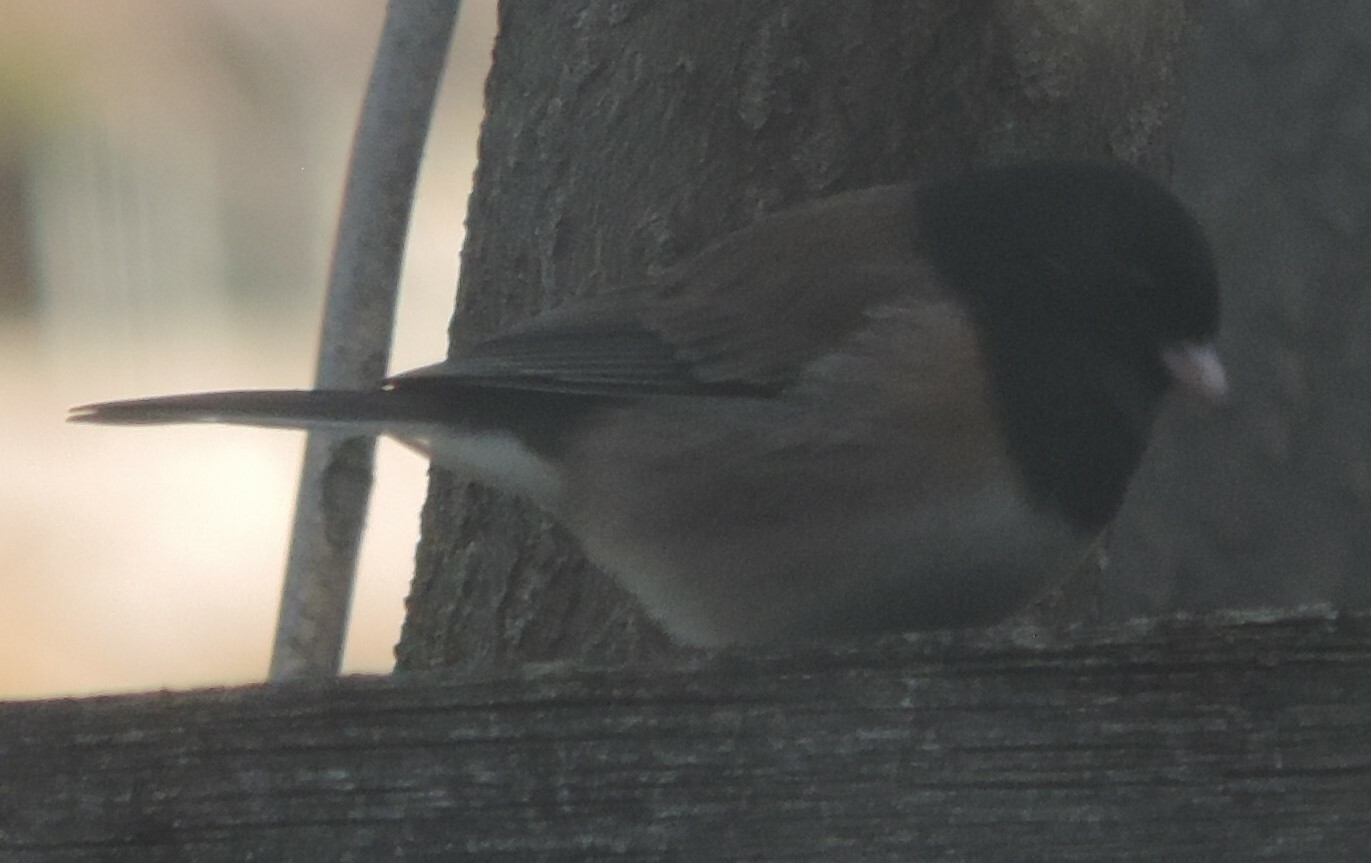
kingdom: Animalia
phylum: Chordata
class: Aves
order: Passeriformes
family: Passerellidae
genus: Junco
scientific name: Junco hyemalis
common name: Dark-eyed junco
